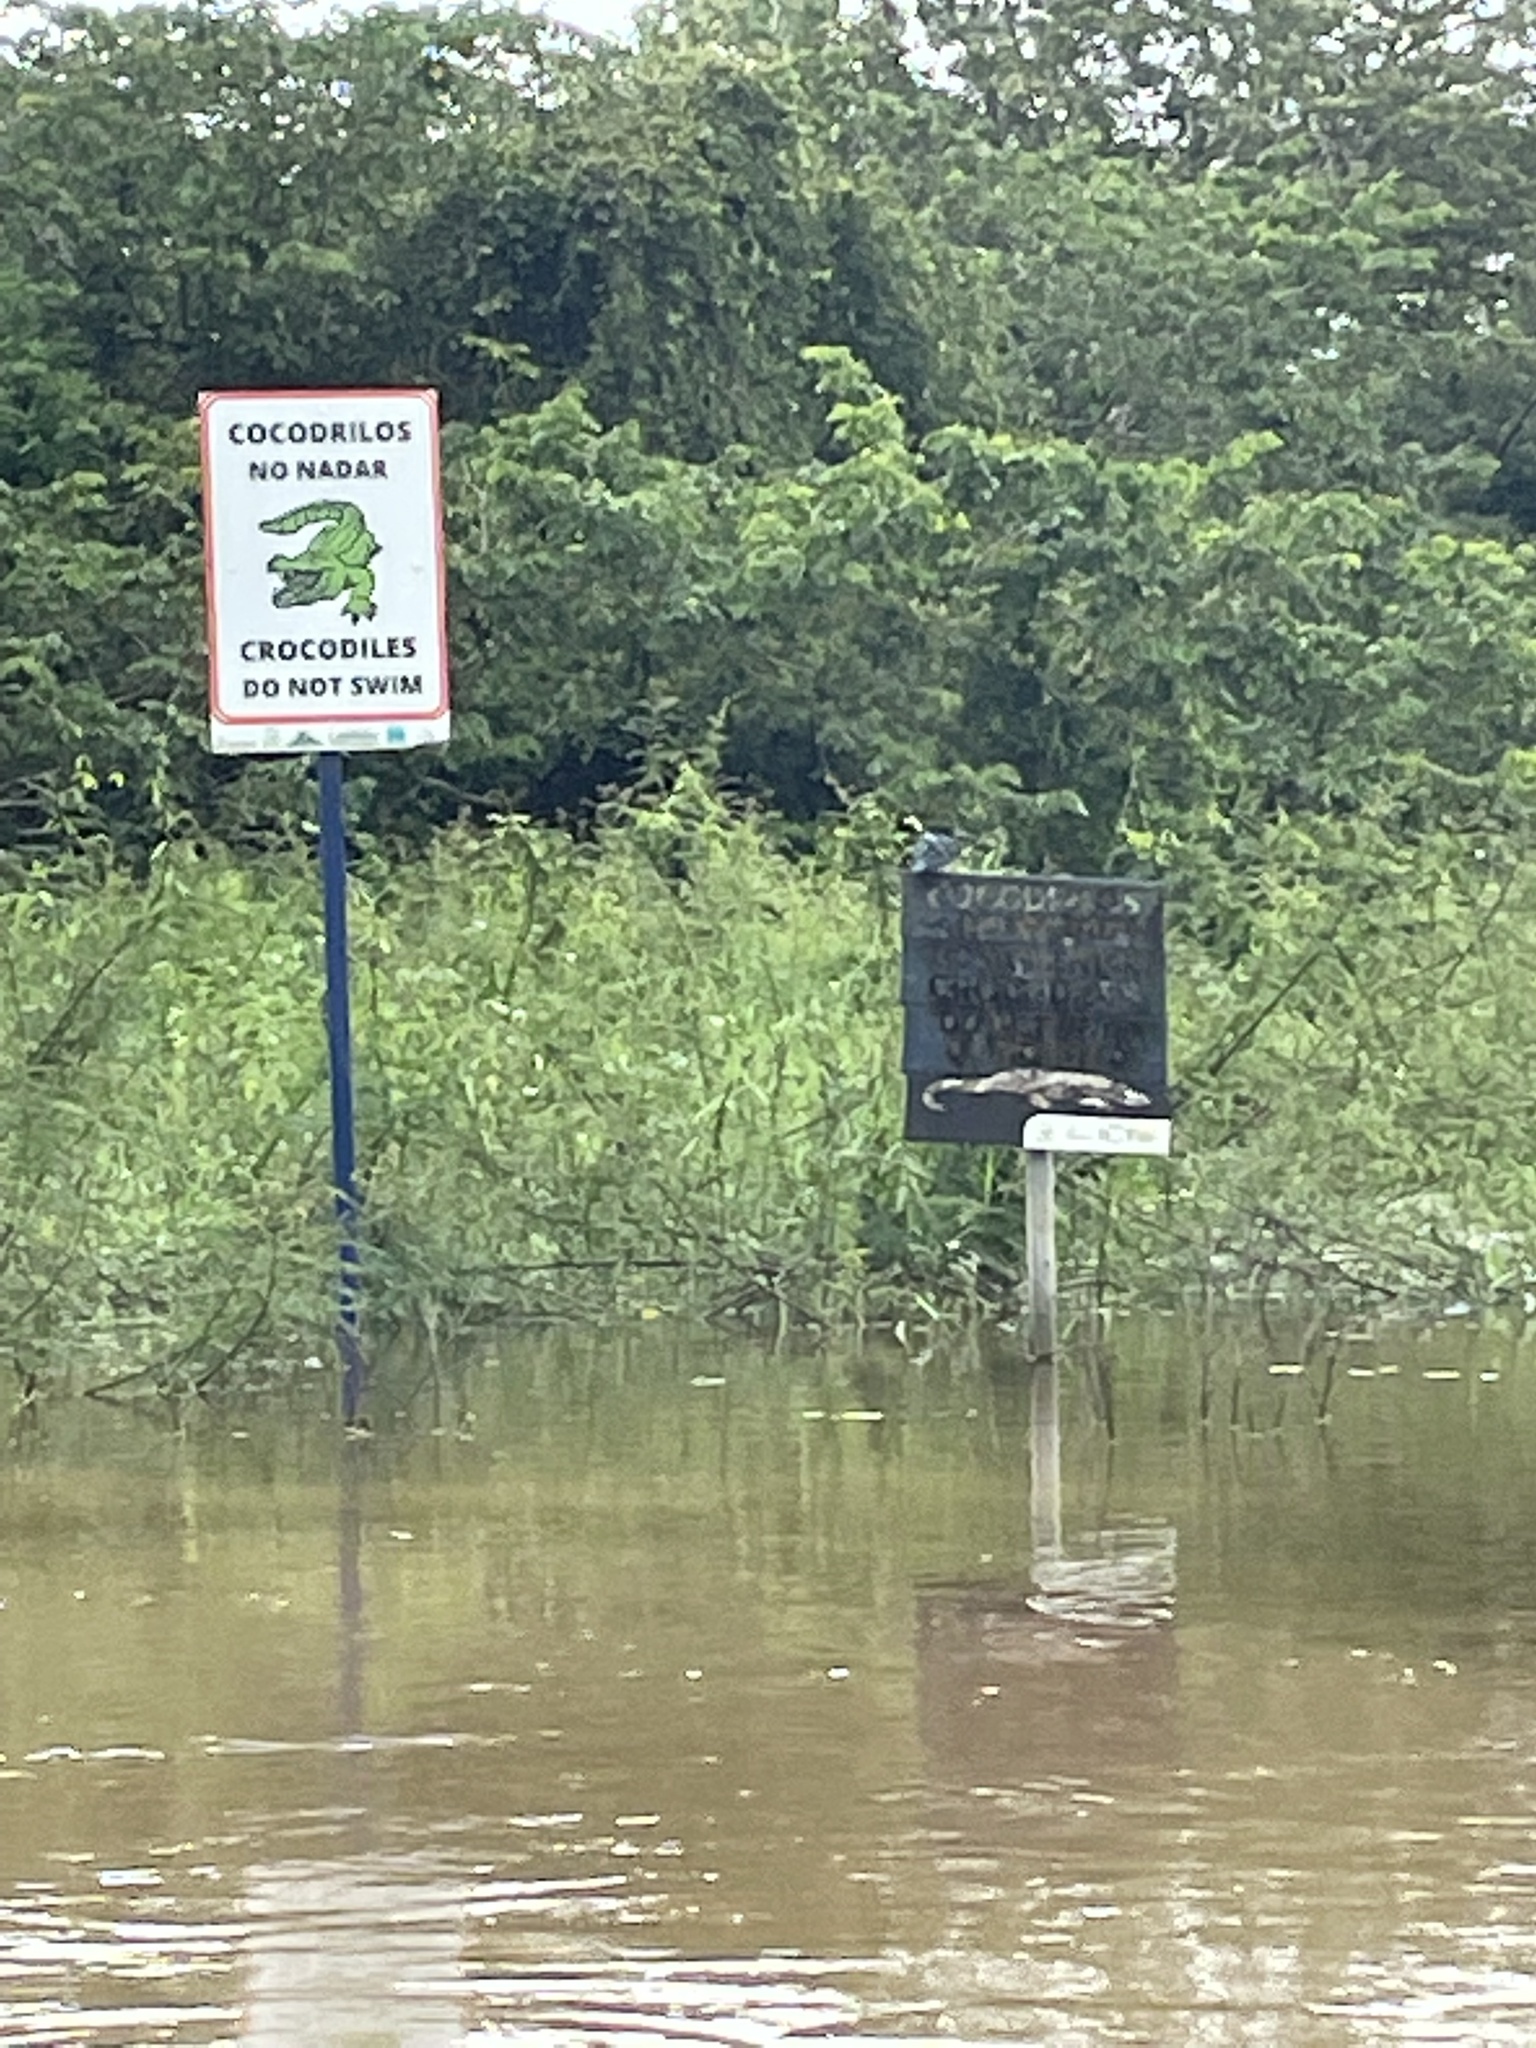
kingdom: Animalia
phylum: Chordata
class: Aves
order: Coraciiformes
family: Alcedinidae
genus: Chloroceryle
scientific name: Chloroceryle amazona
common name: Amazon kingfisher
